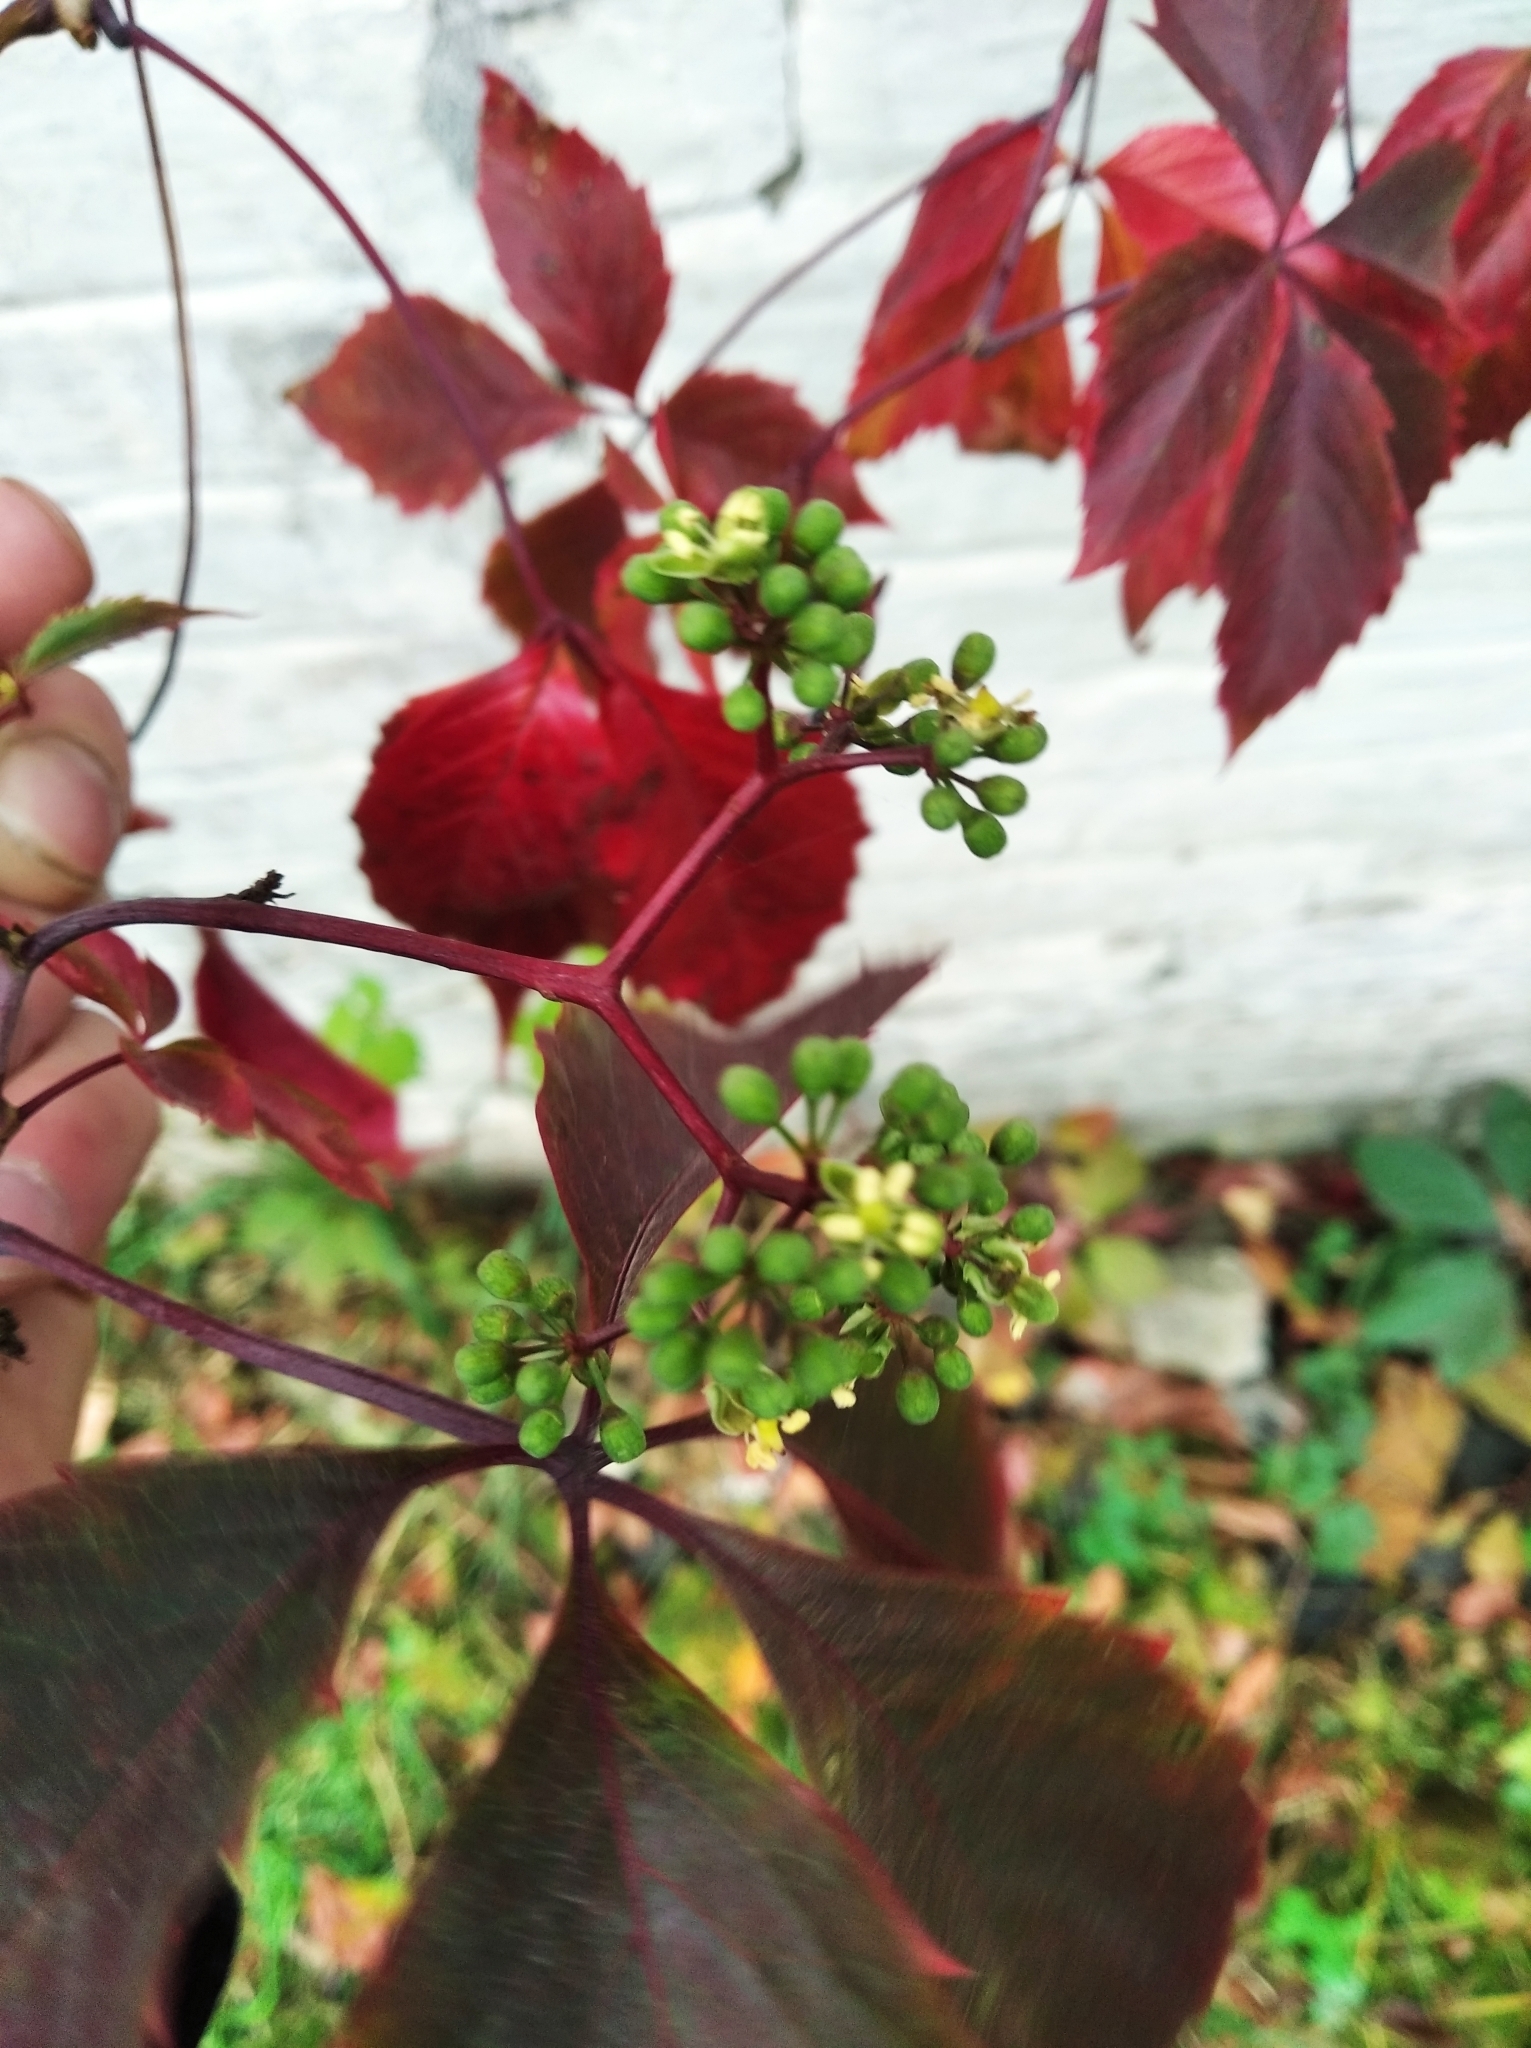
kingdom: Plantae
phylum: Tracheophyta
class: Magnoliopsida
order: Vitales
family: Vitaceae
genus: Parthenocissus
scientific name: Parthenocissus inserta
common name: False virginia-creeper
